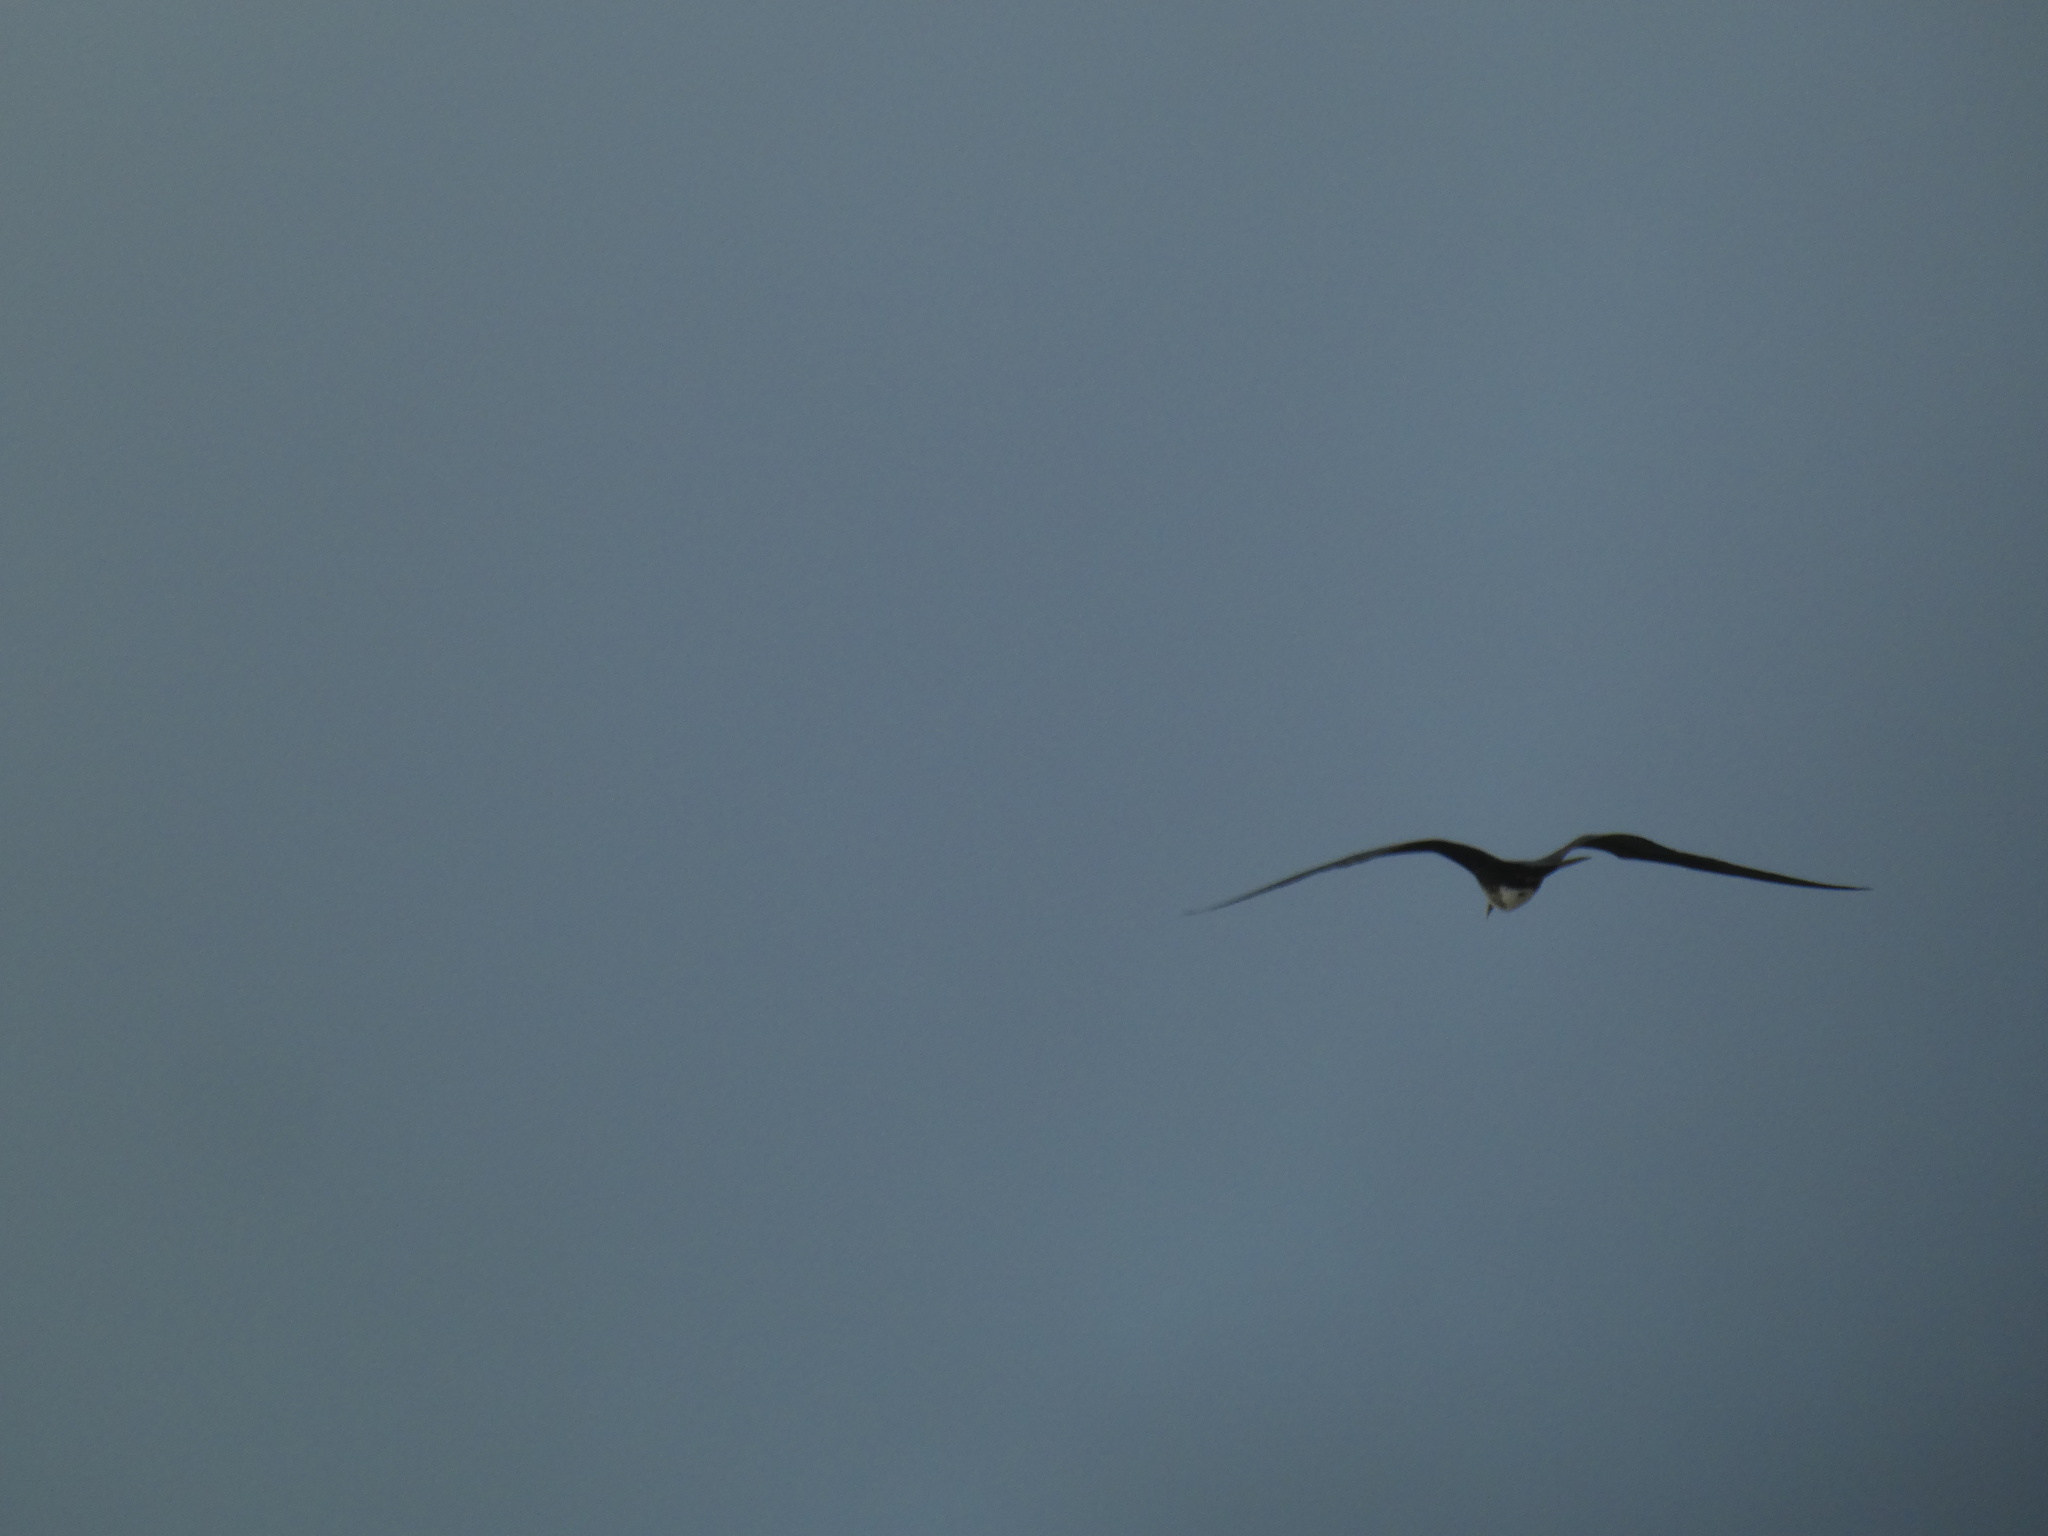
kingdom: Animalia
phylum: Chordata
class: Aves
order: Suliformes
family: Fregatidae
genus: Fregata
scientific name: Fregata magnificens
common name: Magnificent frigatebird
